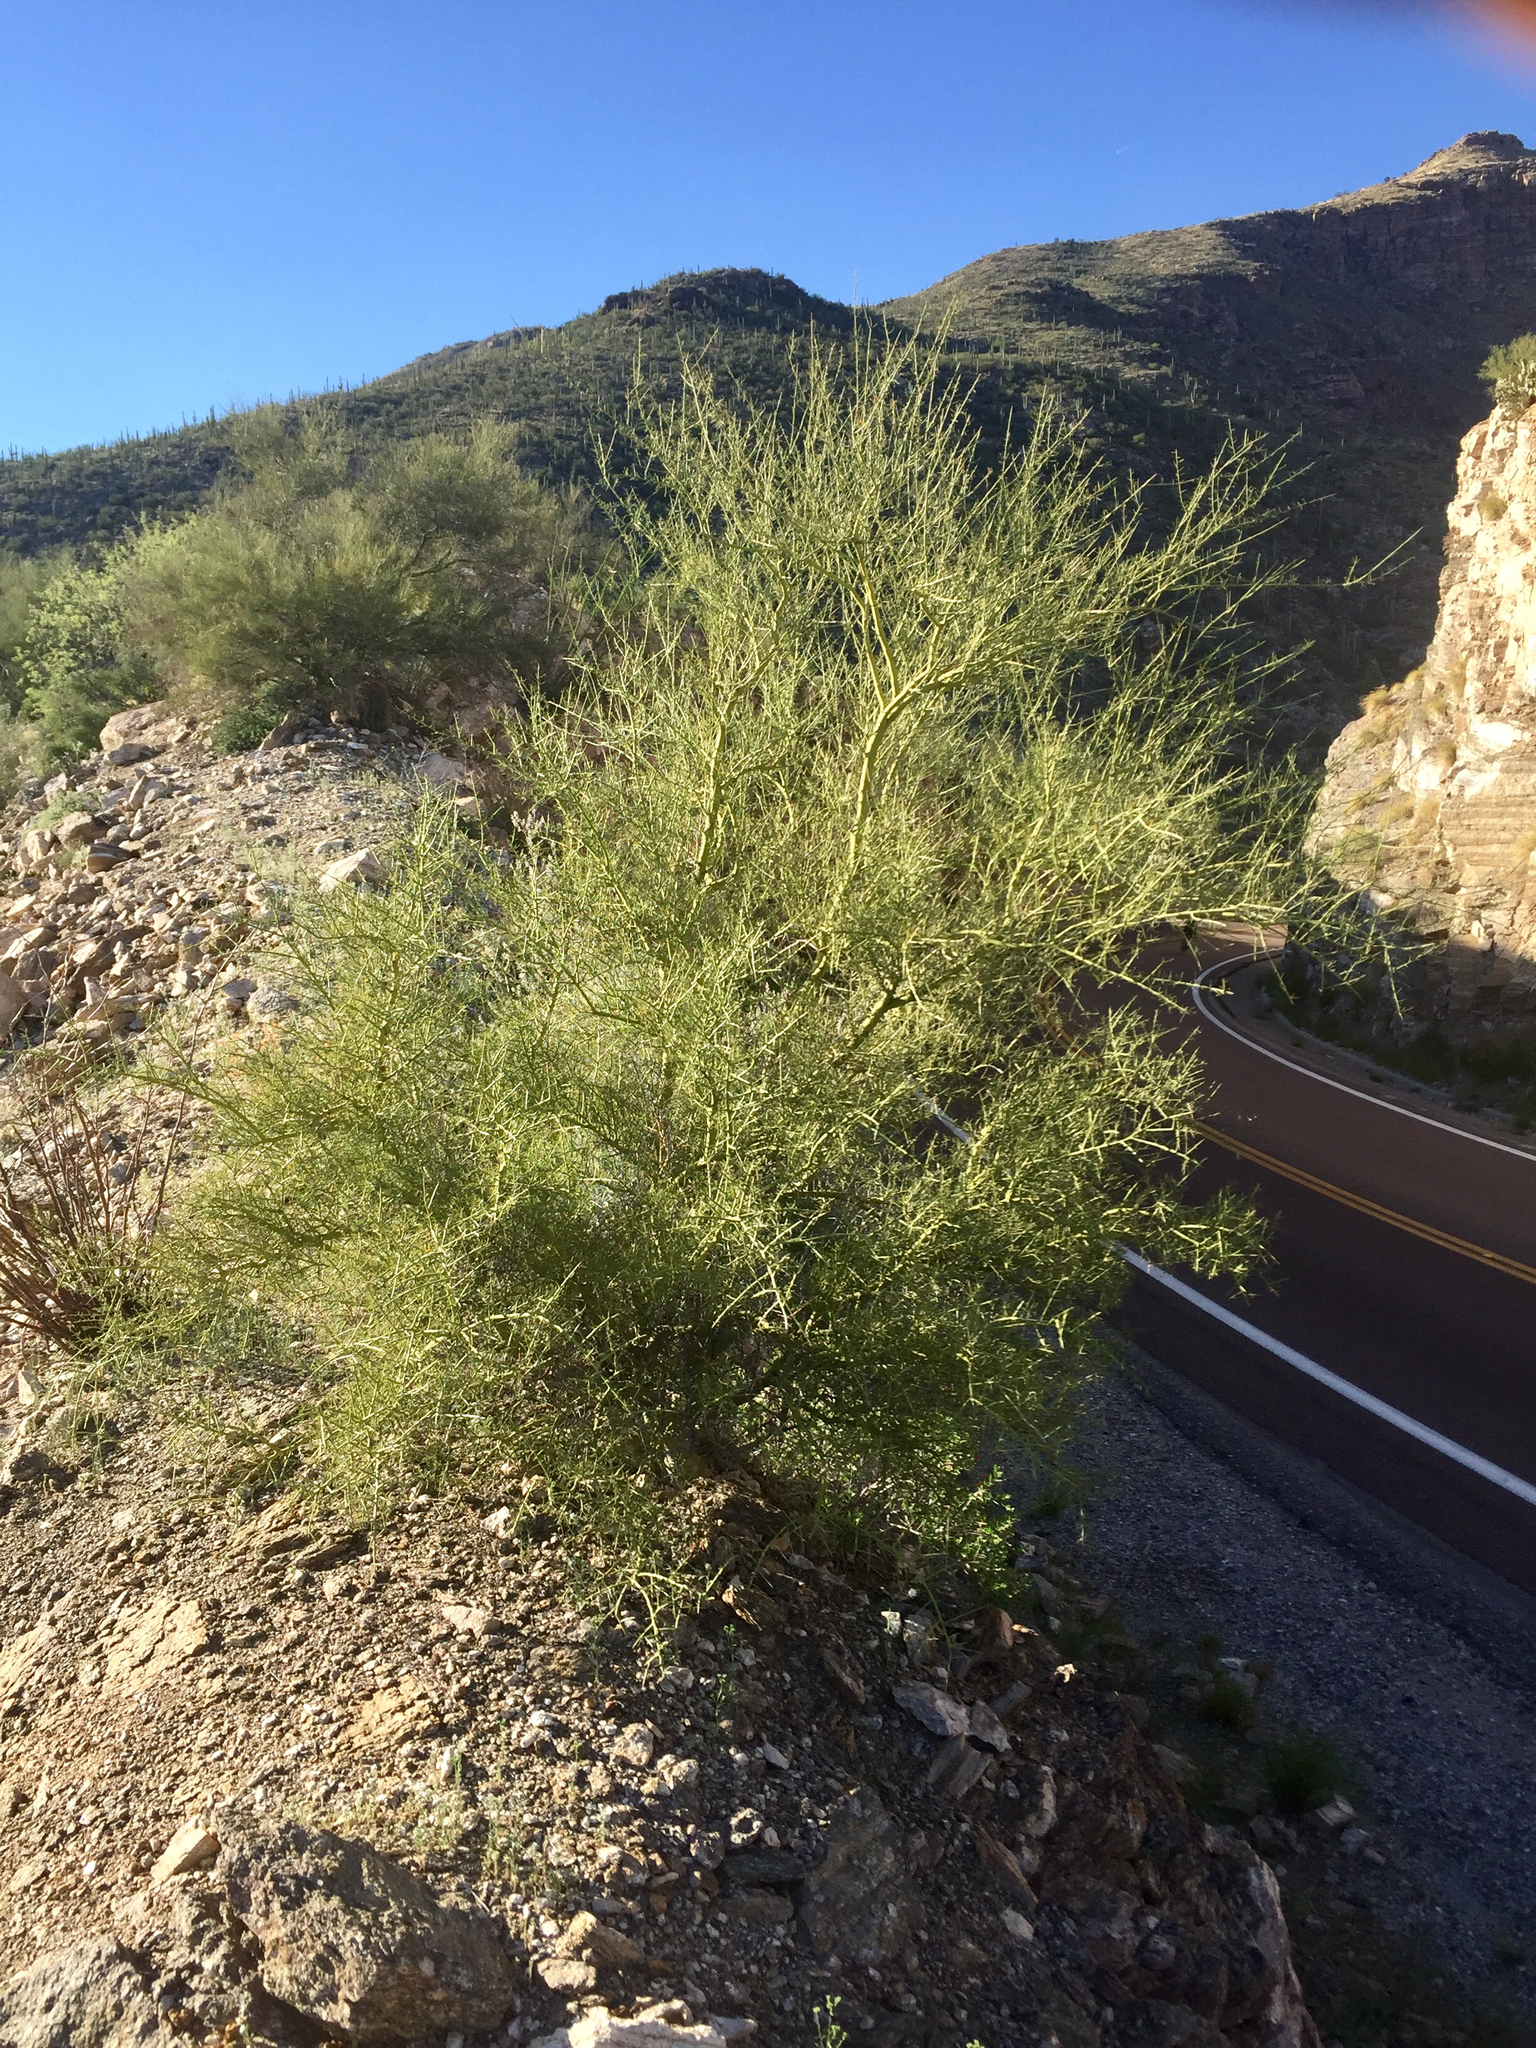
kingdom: Plantae
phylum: Tracheophyta
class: Magnoliopsida
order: Fabales
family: Fabaceae
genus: Parkinsonia
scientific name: Parkinsonia microphylla
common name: Yellow paloverde
